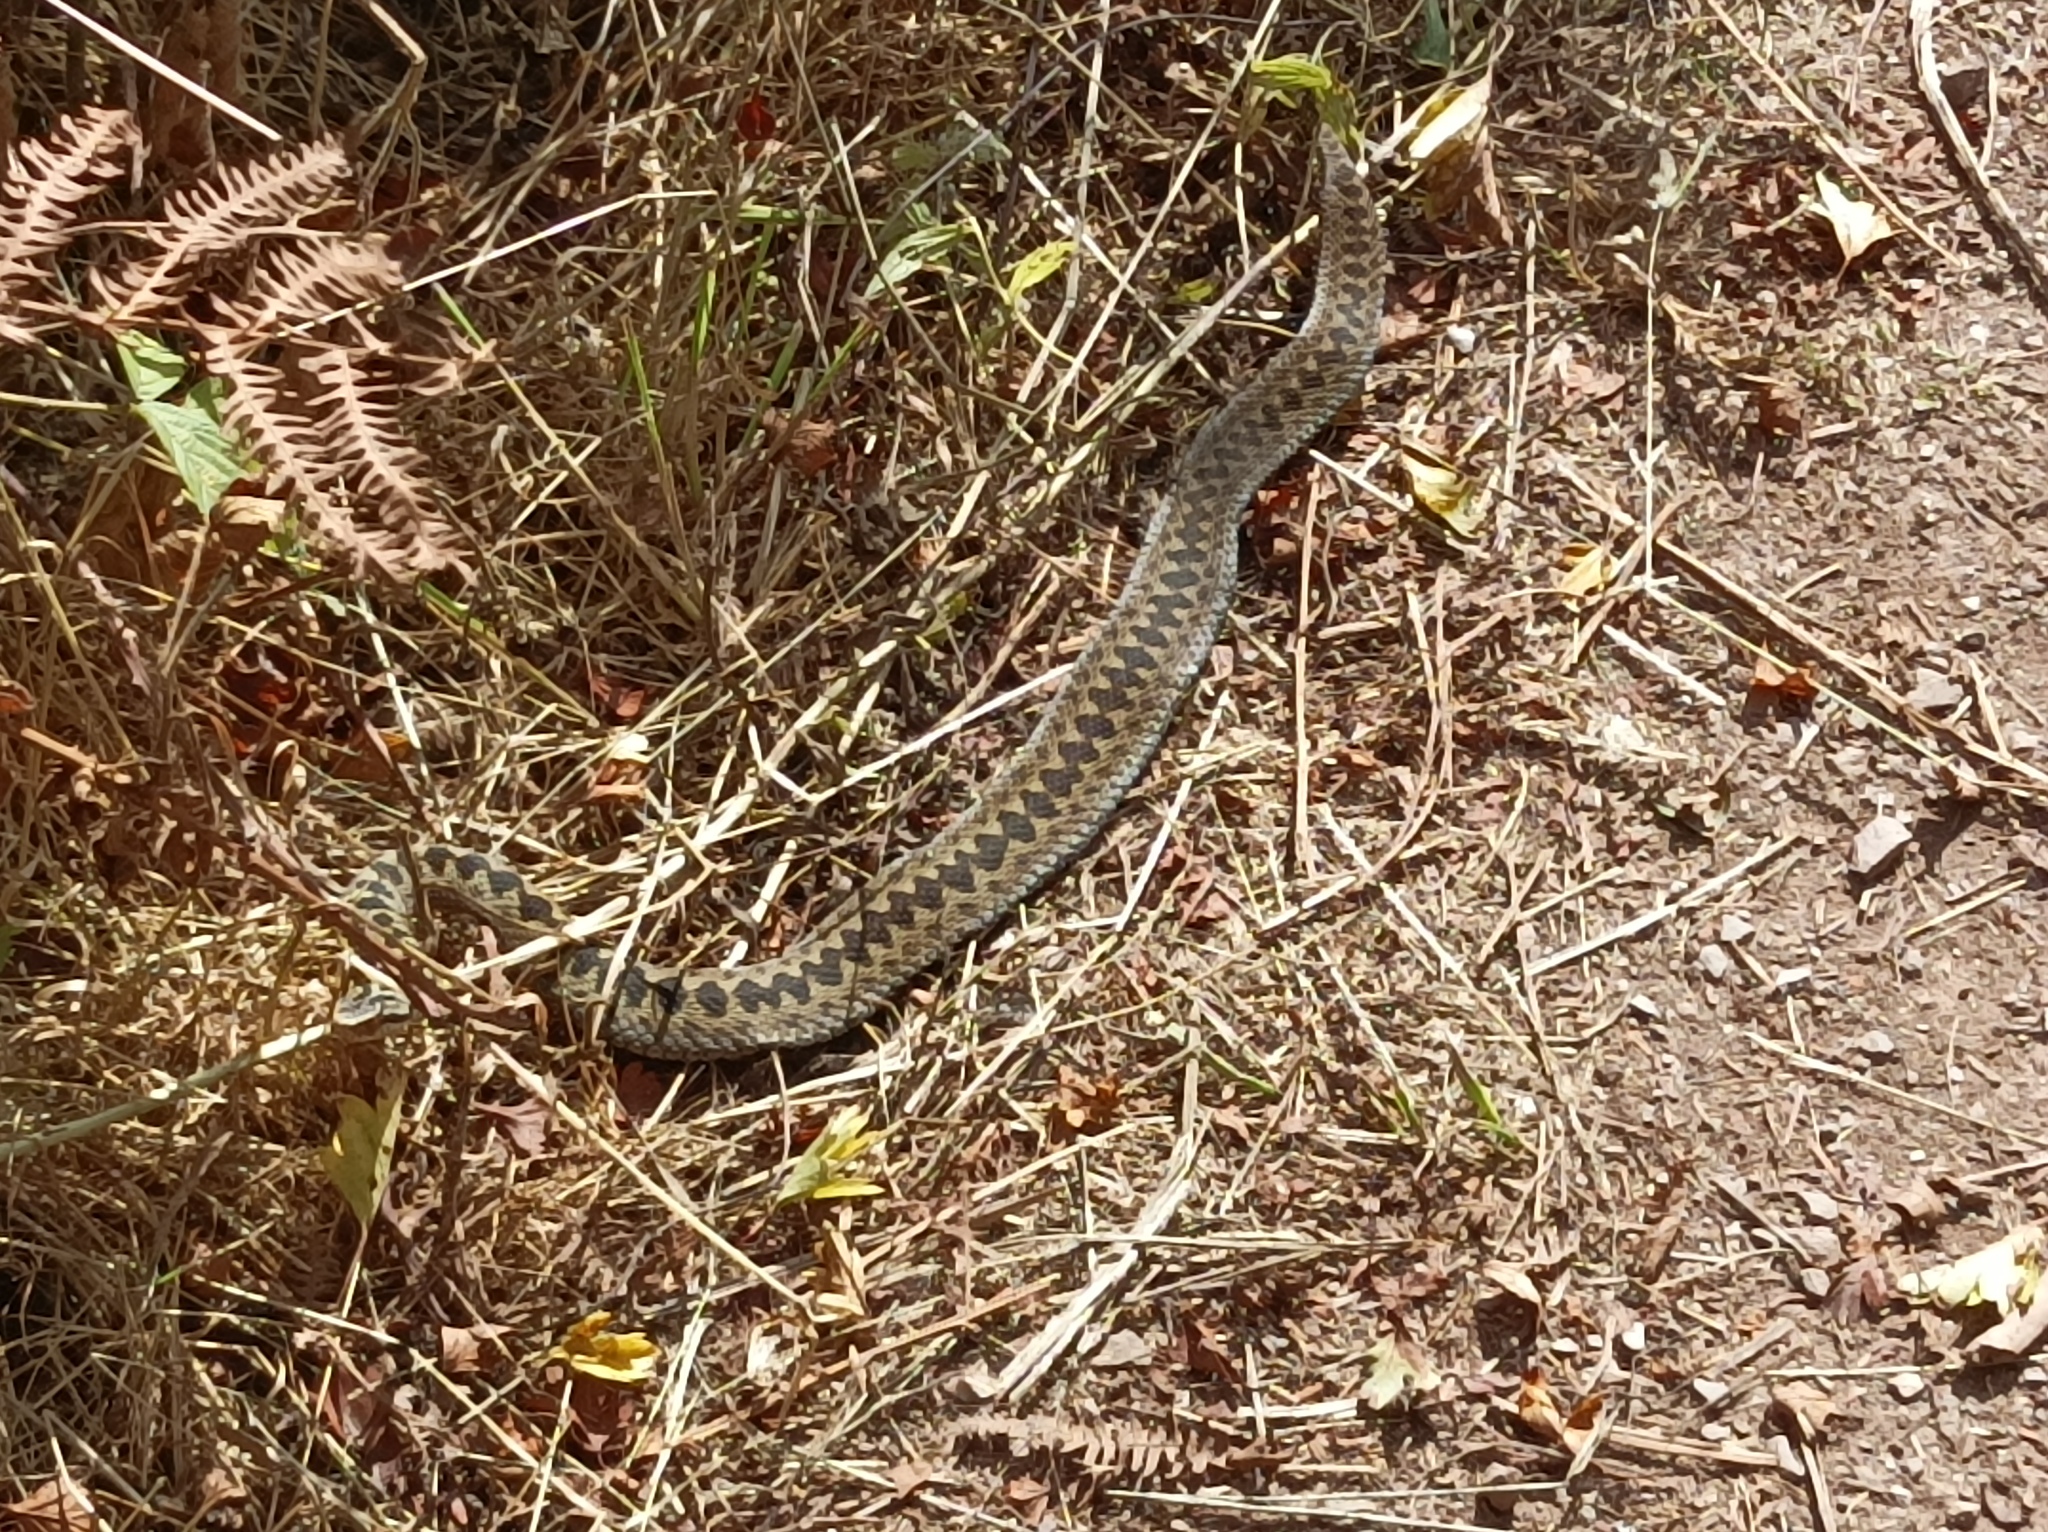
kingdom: Animalia
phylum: Chordata
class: Squamata
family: Viperidae
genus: Vipera
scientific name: Vipera berus
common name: Adder
